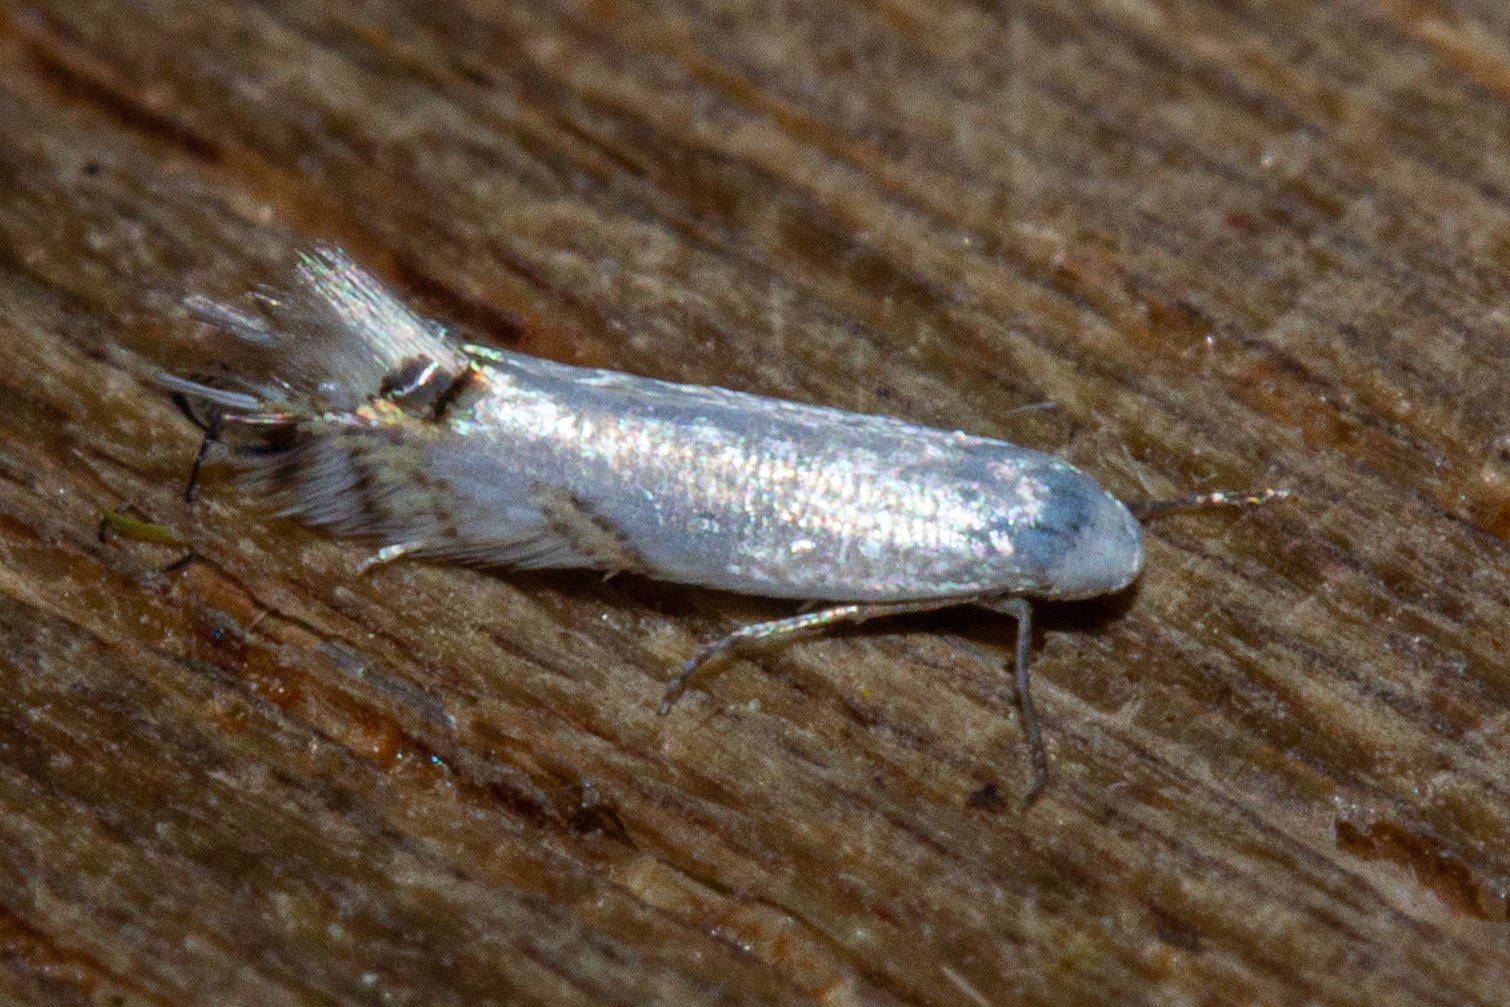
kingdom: Animalia
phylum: Arthropoda
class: Insecta
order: Lepidoptera
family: Lyonetiidae
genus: Leucoptera
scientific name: Leucoptera spartifoliella
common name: Scotch broom twig miner
